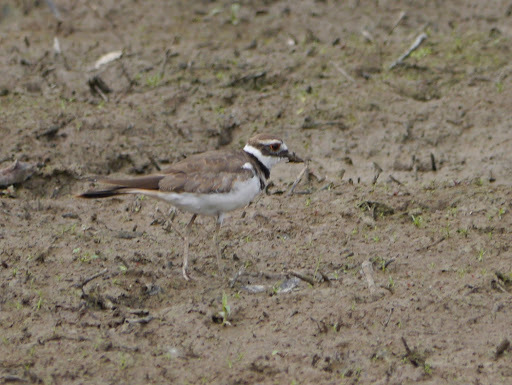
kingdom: Animalia
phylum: Chordata
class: Aves
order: Charadriiformes
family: Charadriidae
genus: Charadrius
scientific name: Charadrius vociferus
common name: Killdeer
